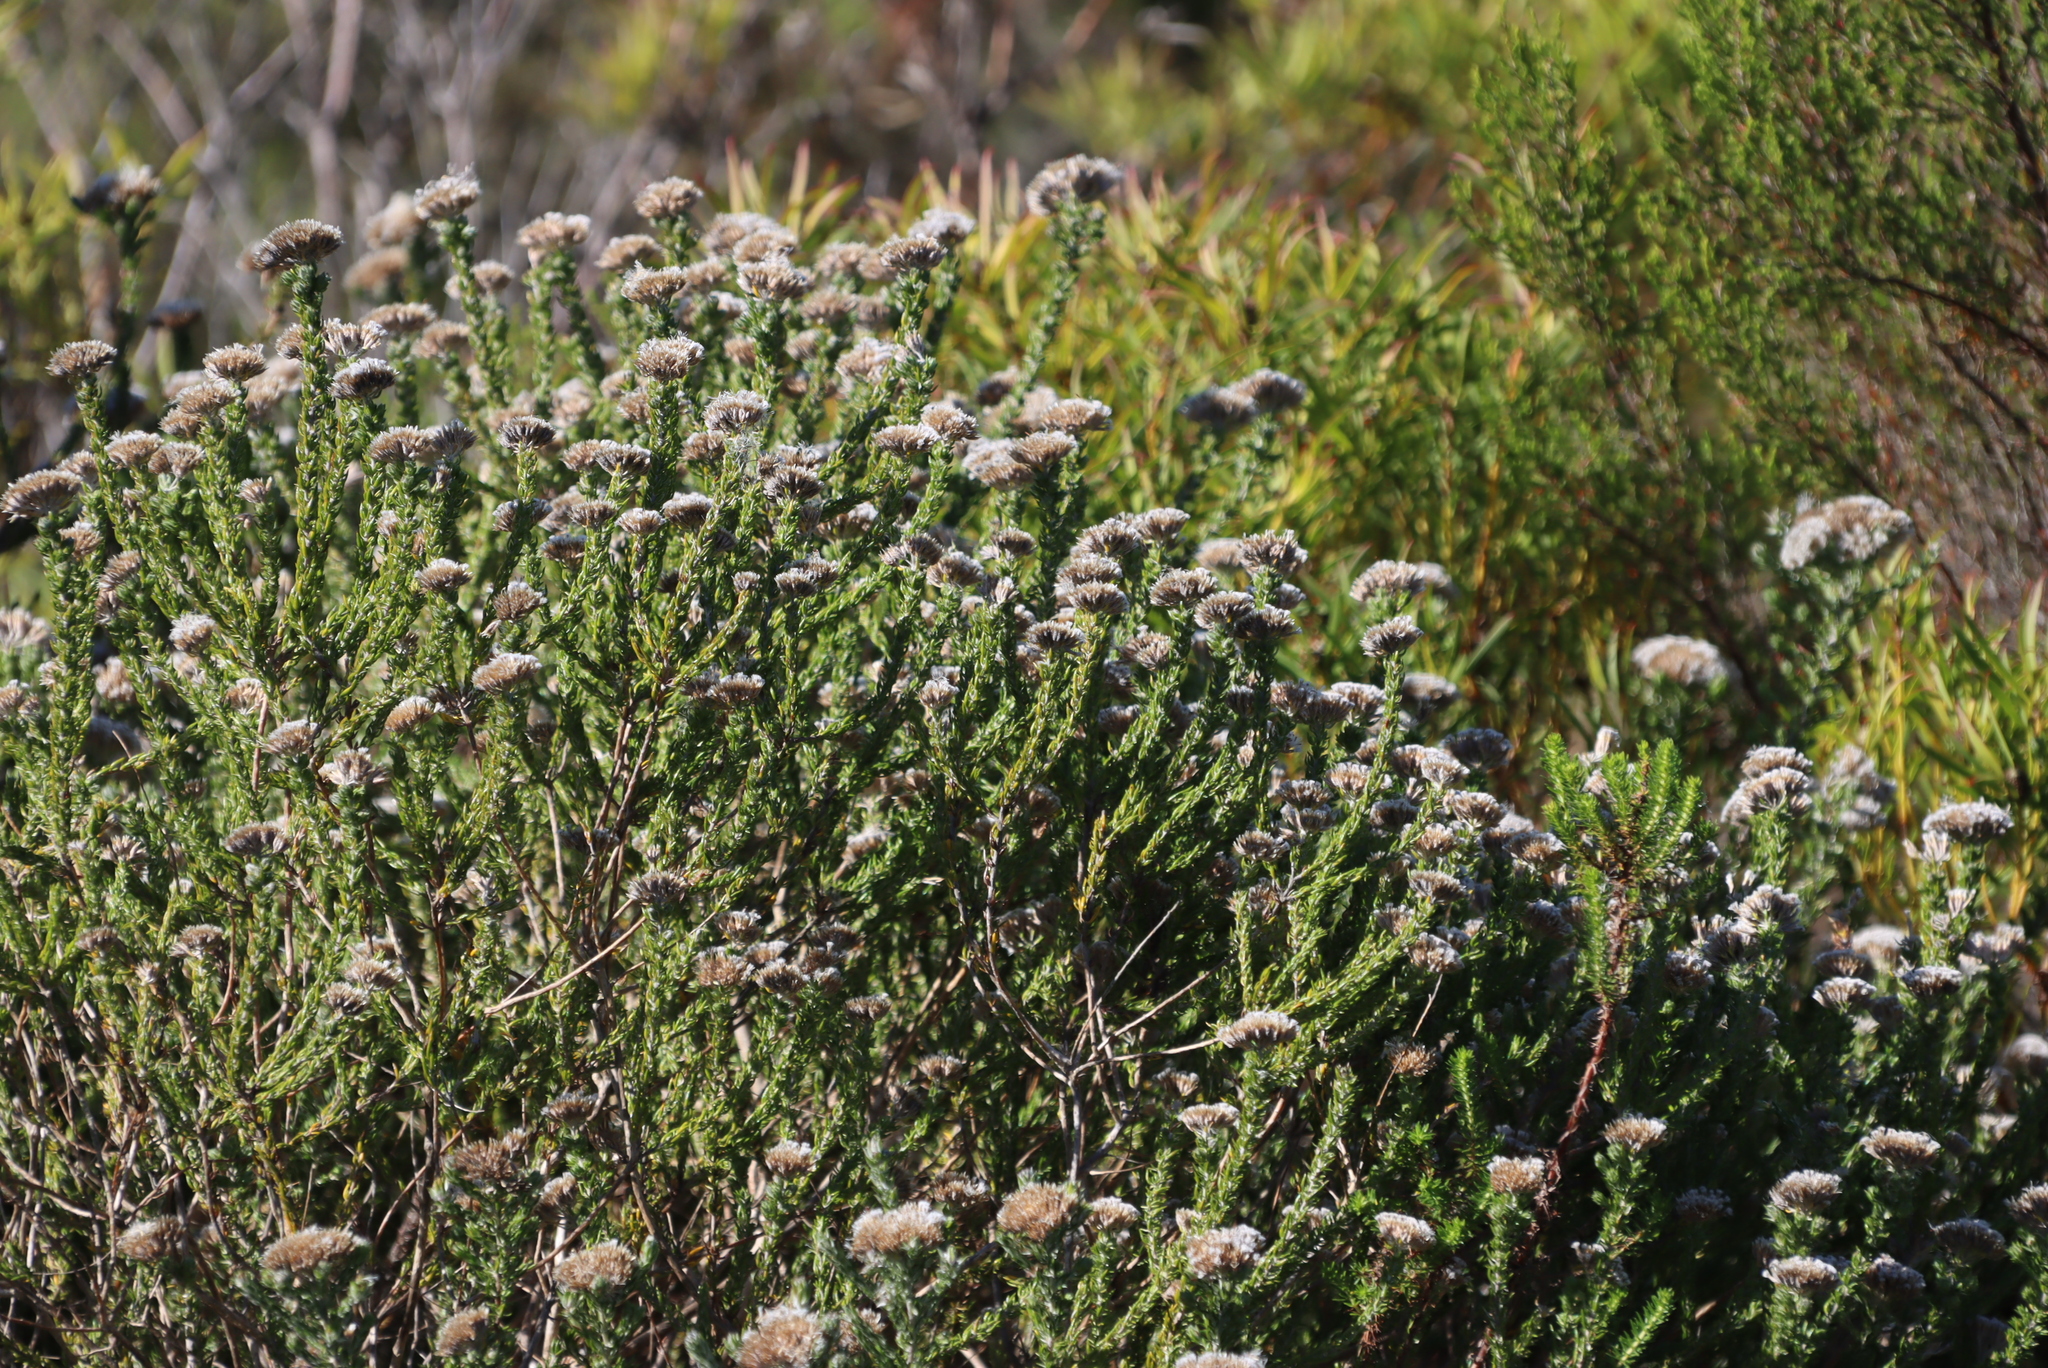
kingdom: Plantae
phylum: Tracheophyta
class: Magnoliopsida
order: Asterales
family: Asteraceae
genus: Metalasia
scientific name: Metalasia pungens
